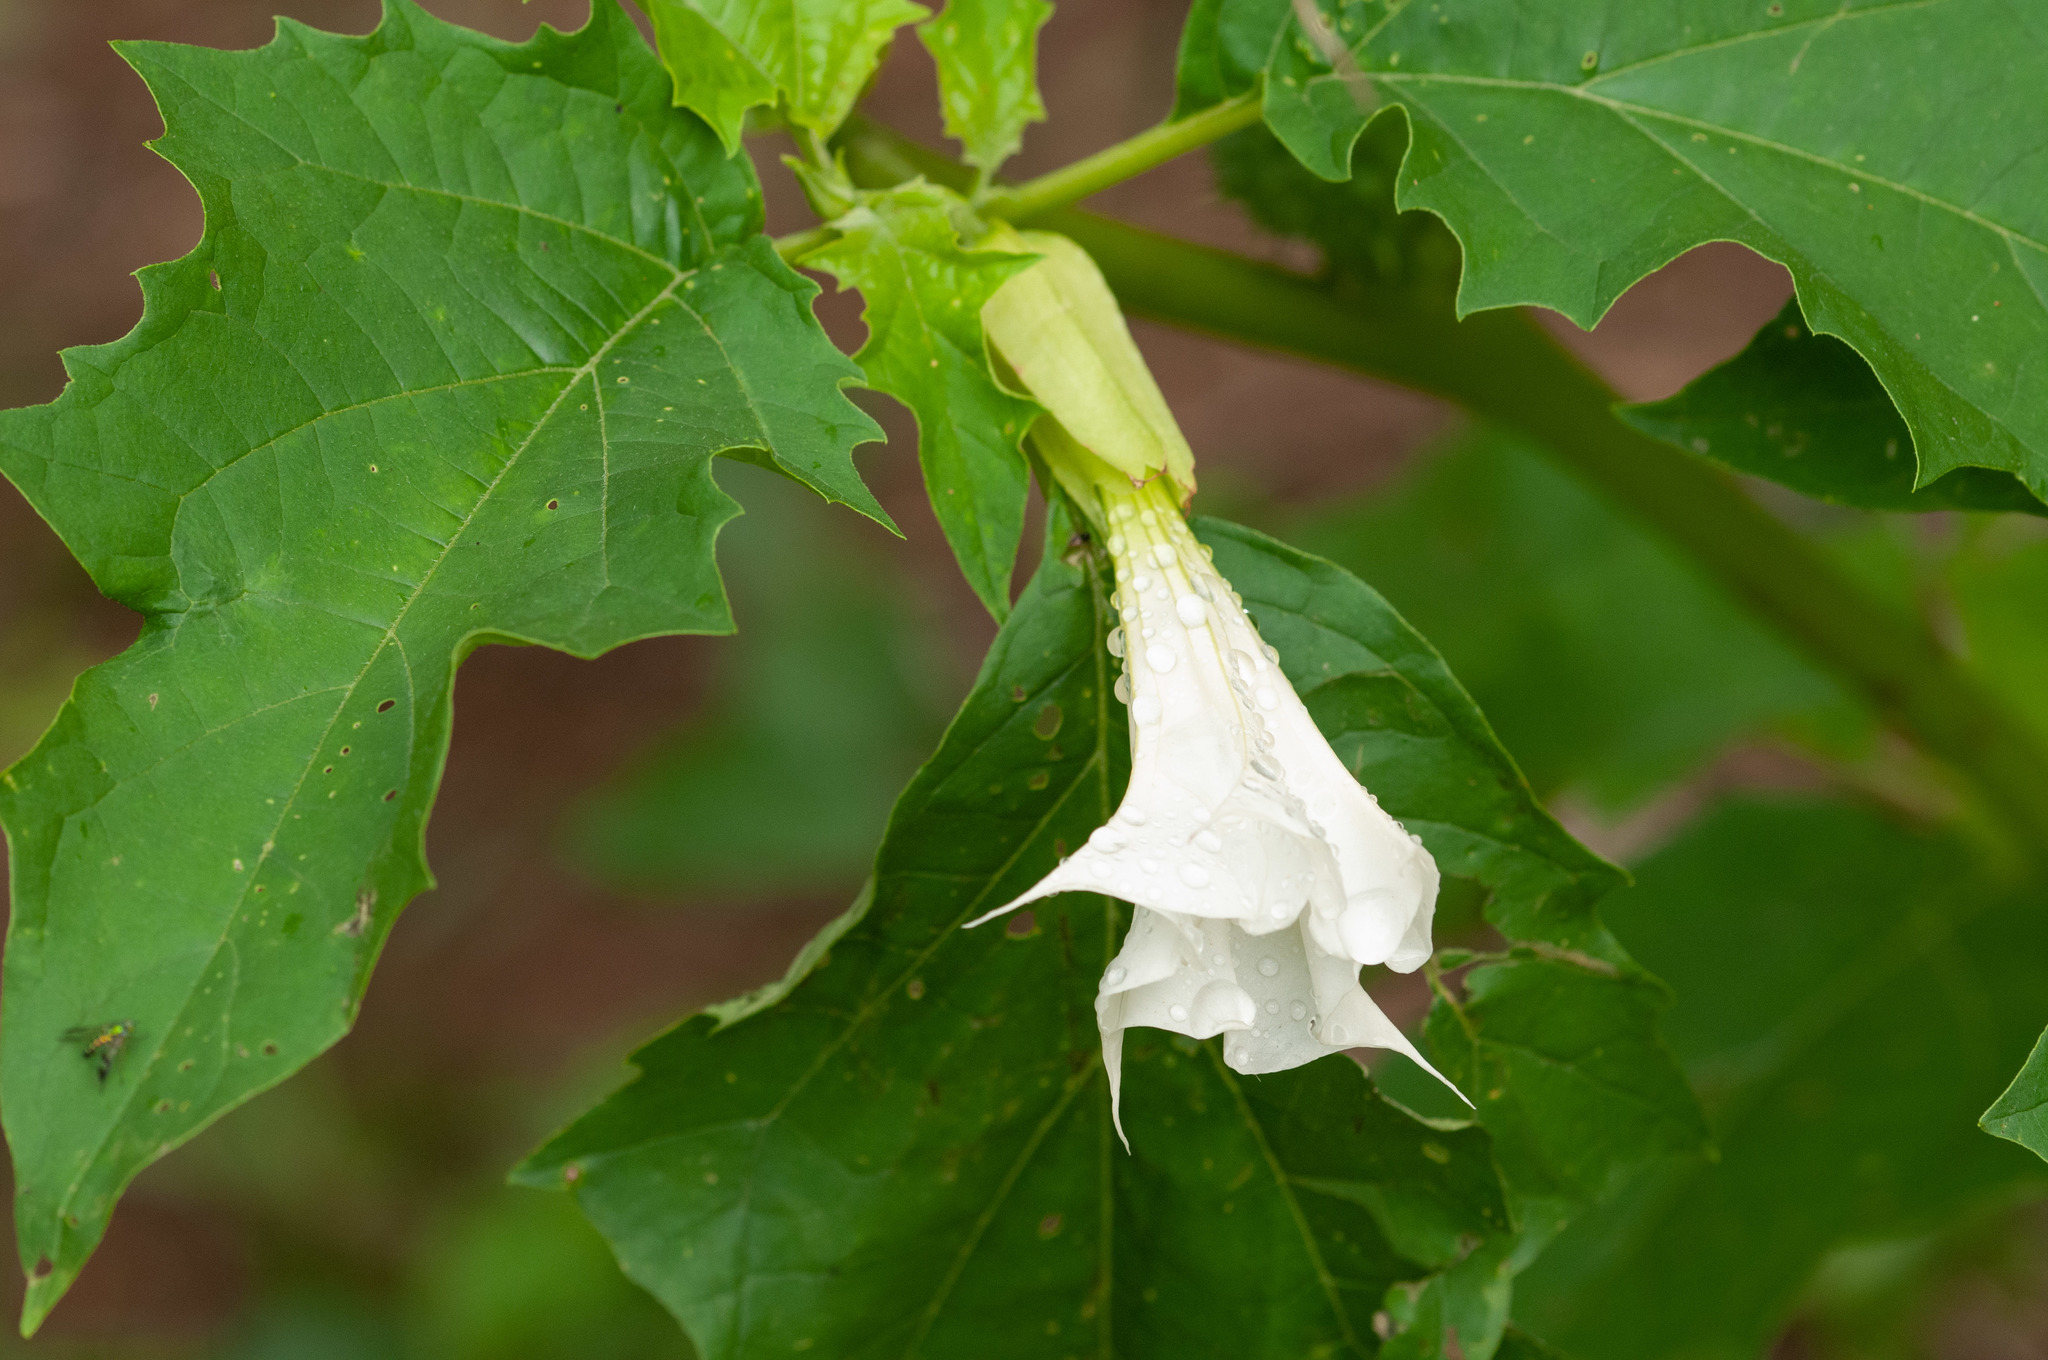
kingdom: Plantae
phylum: Tracheophyta
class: Magnoliopsida
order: Solanales
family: Solanaceae
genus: Datura
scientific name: Datura stramonium
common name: Thorn-apple
